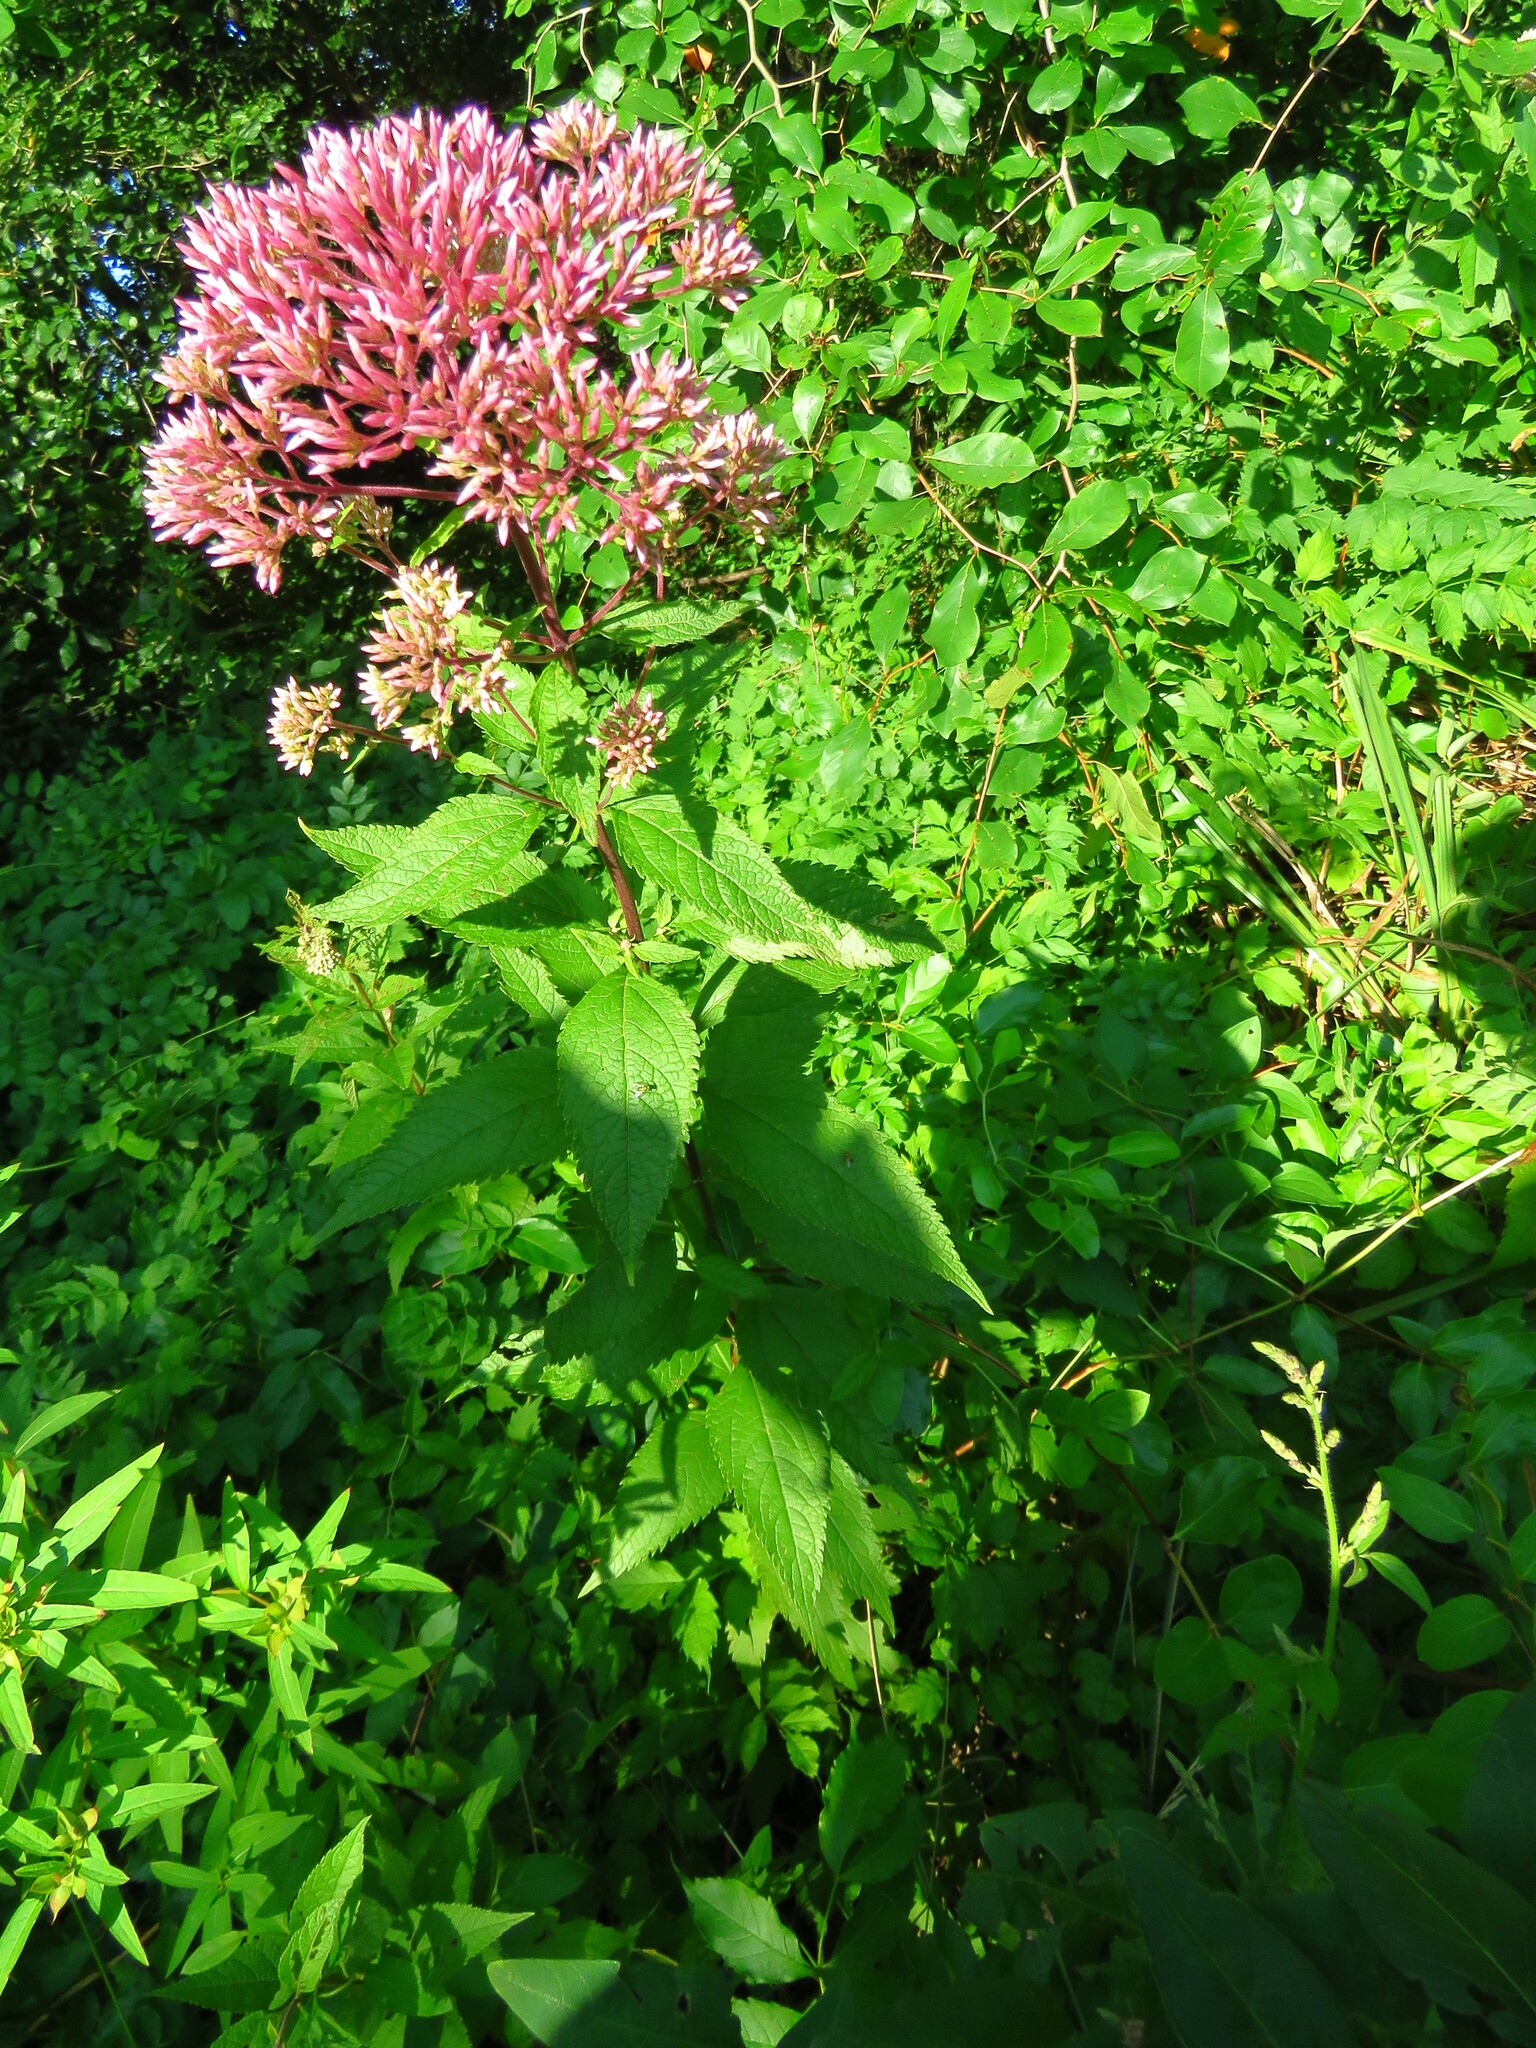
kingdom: Plantae
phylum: Tracheophyta
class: Magnoliopsida
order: Asterales
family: Asteraceae
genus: Eutrochium
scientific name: Eutrochium dubium
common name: Coastal plain joe pye weed
